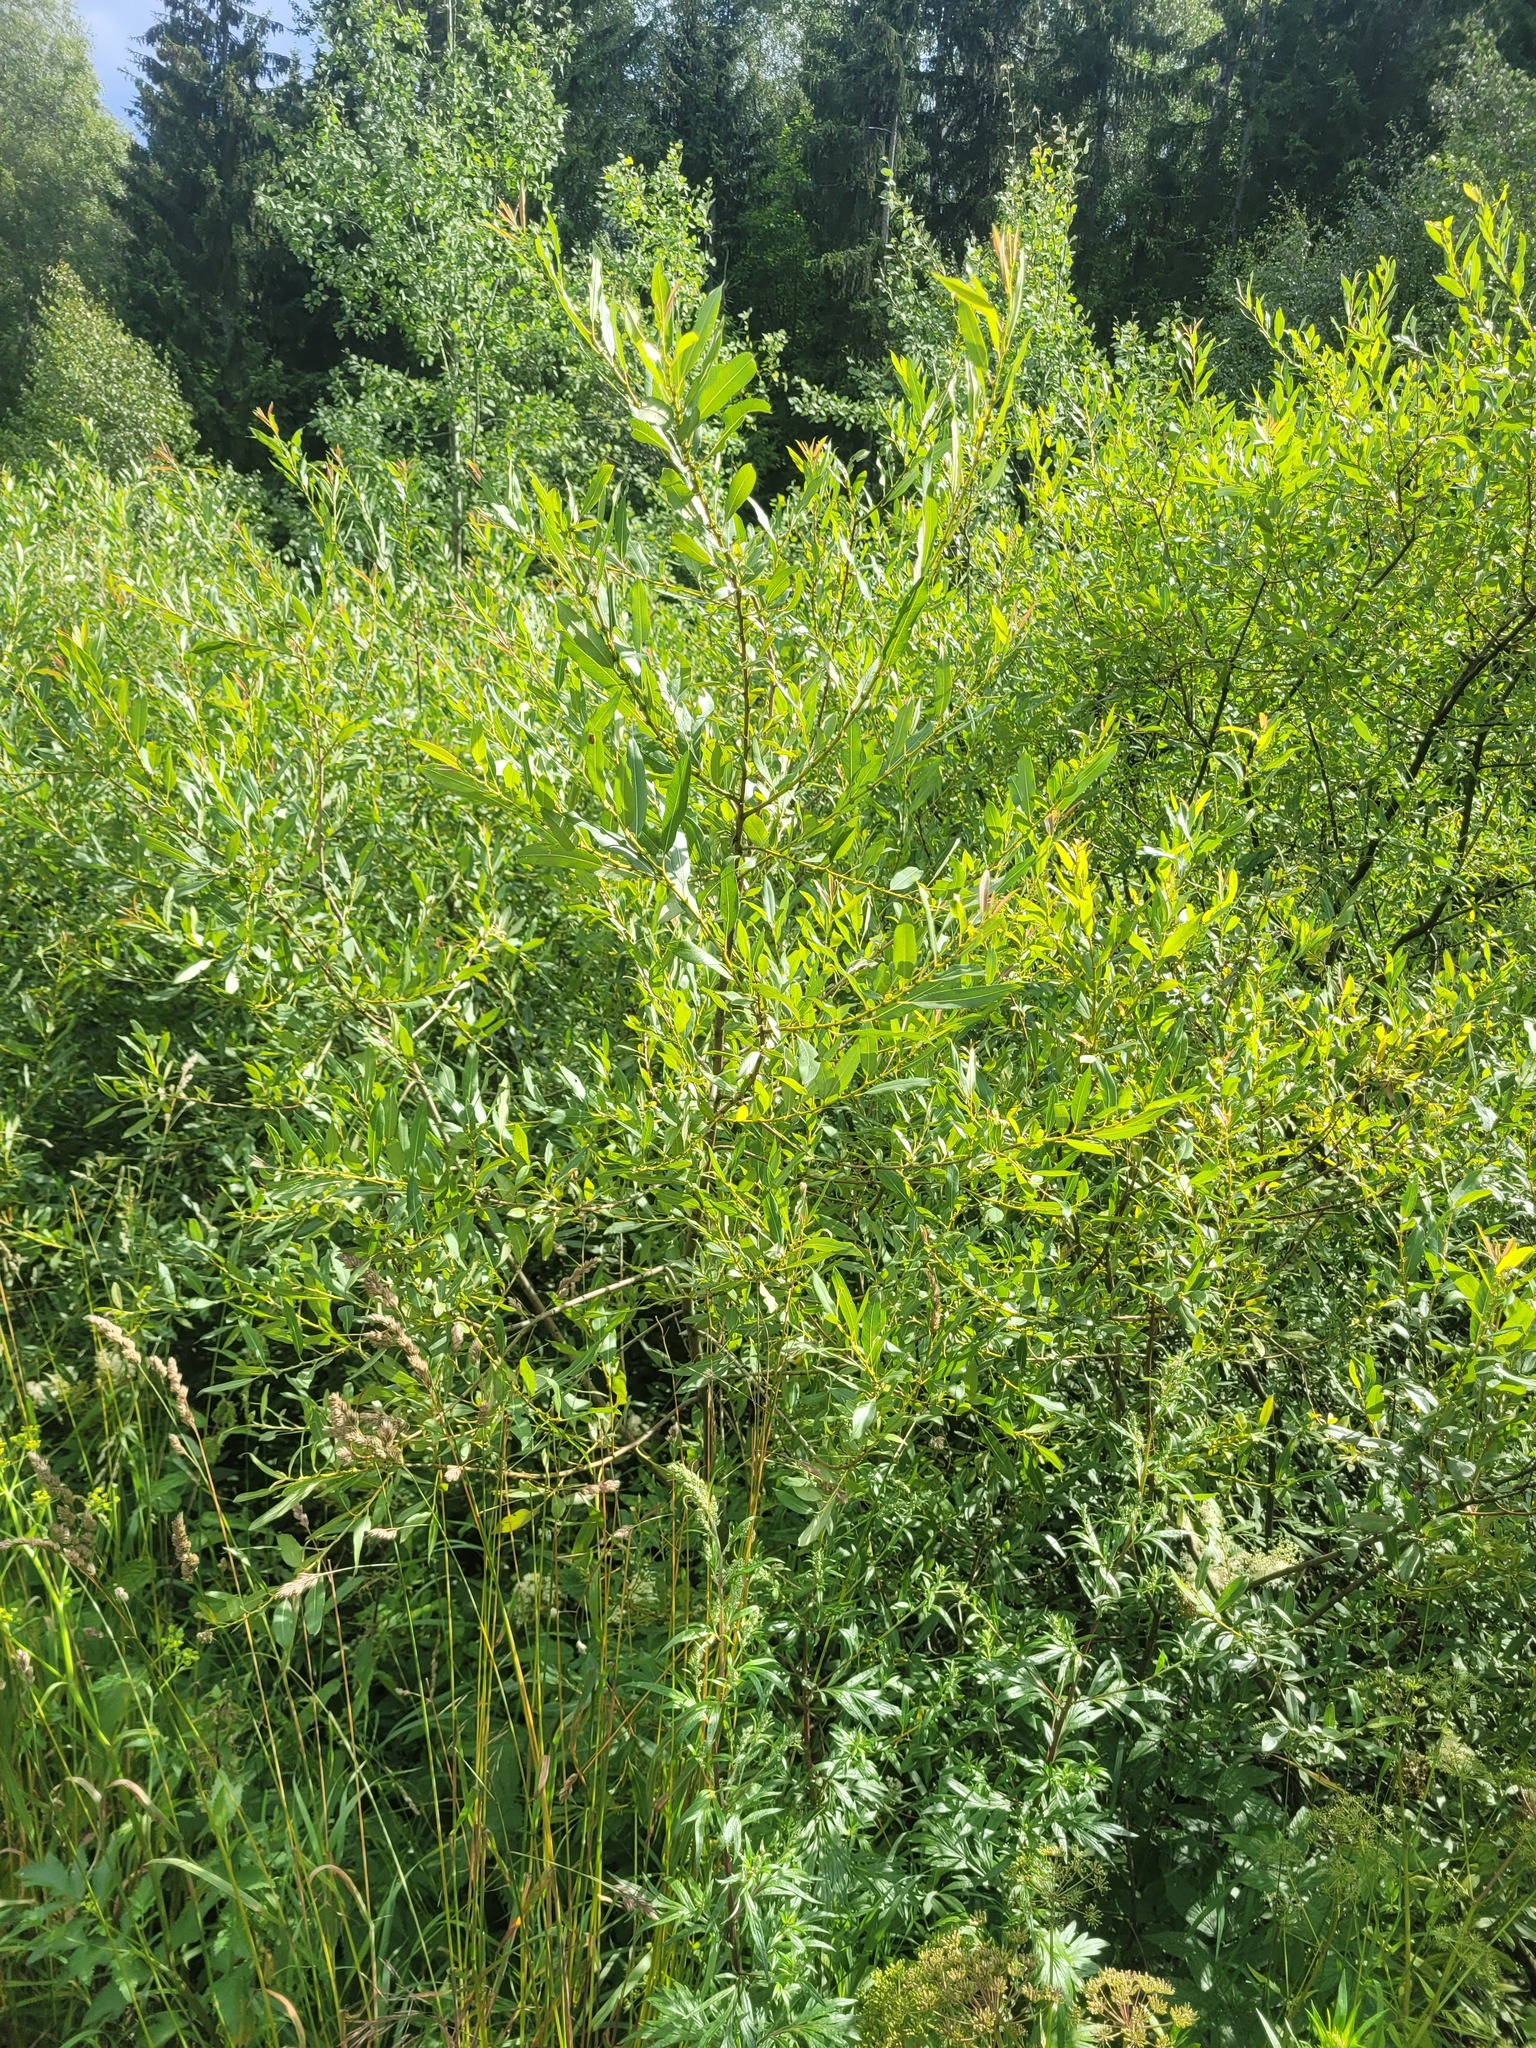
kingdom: Plantae
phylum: Tracheophyta
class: Magnoliopsida
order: Malpighiales
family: Salicaceae
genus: Salix
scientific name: Salix triandra
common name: Almond willow
